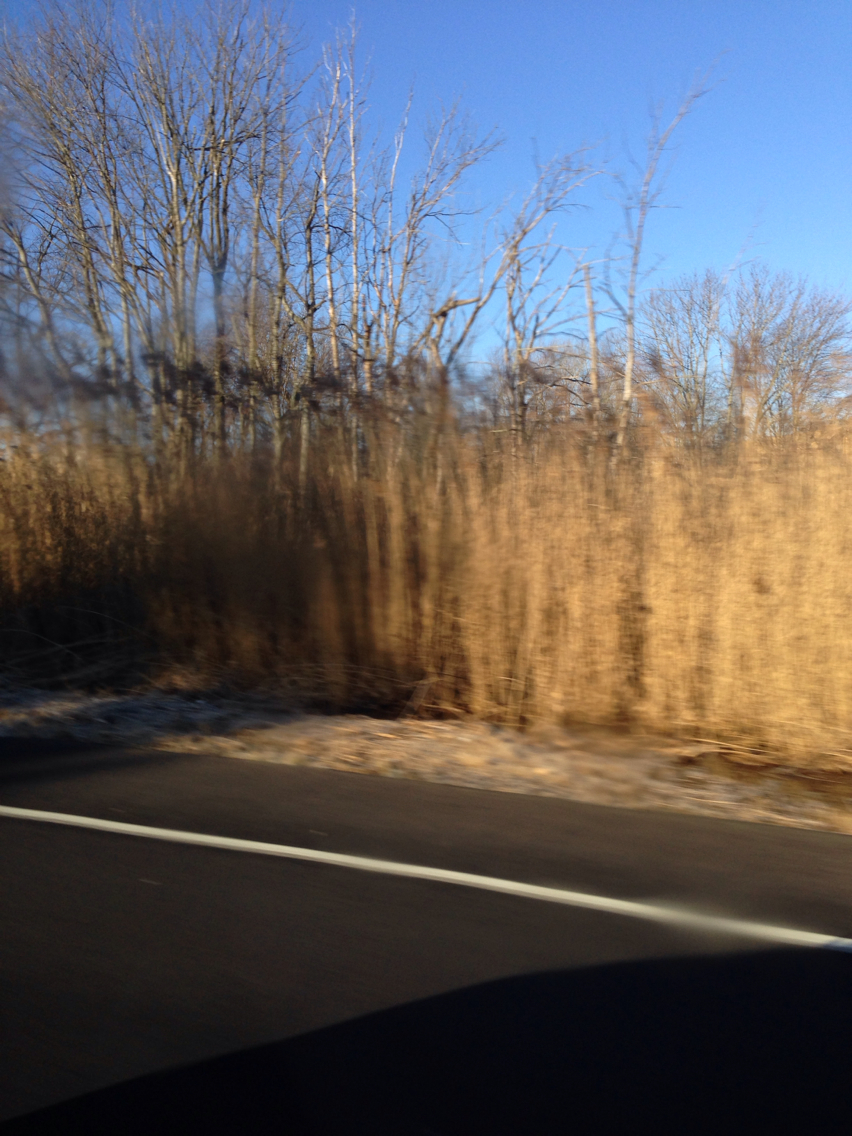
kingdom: Plantae
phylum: Tracheophyta
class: Liliopsida
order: Poales
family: Poaceae
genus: Phragmites
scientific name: Phragmites australis
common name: Common reed
